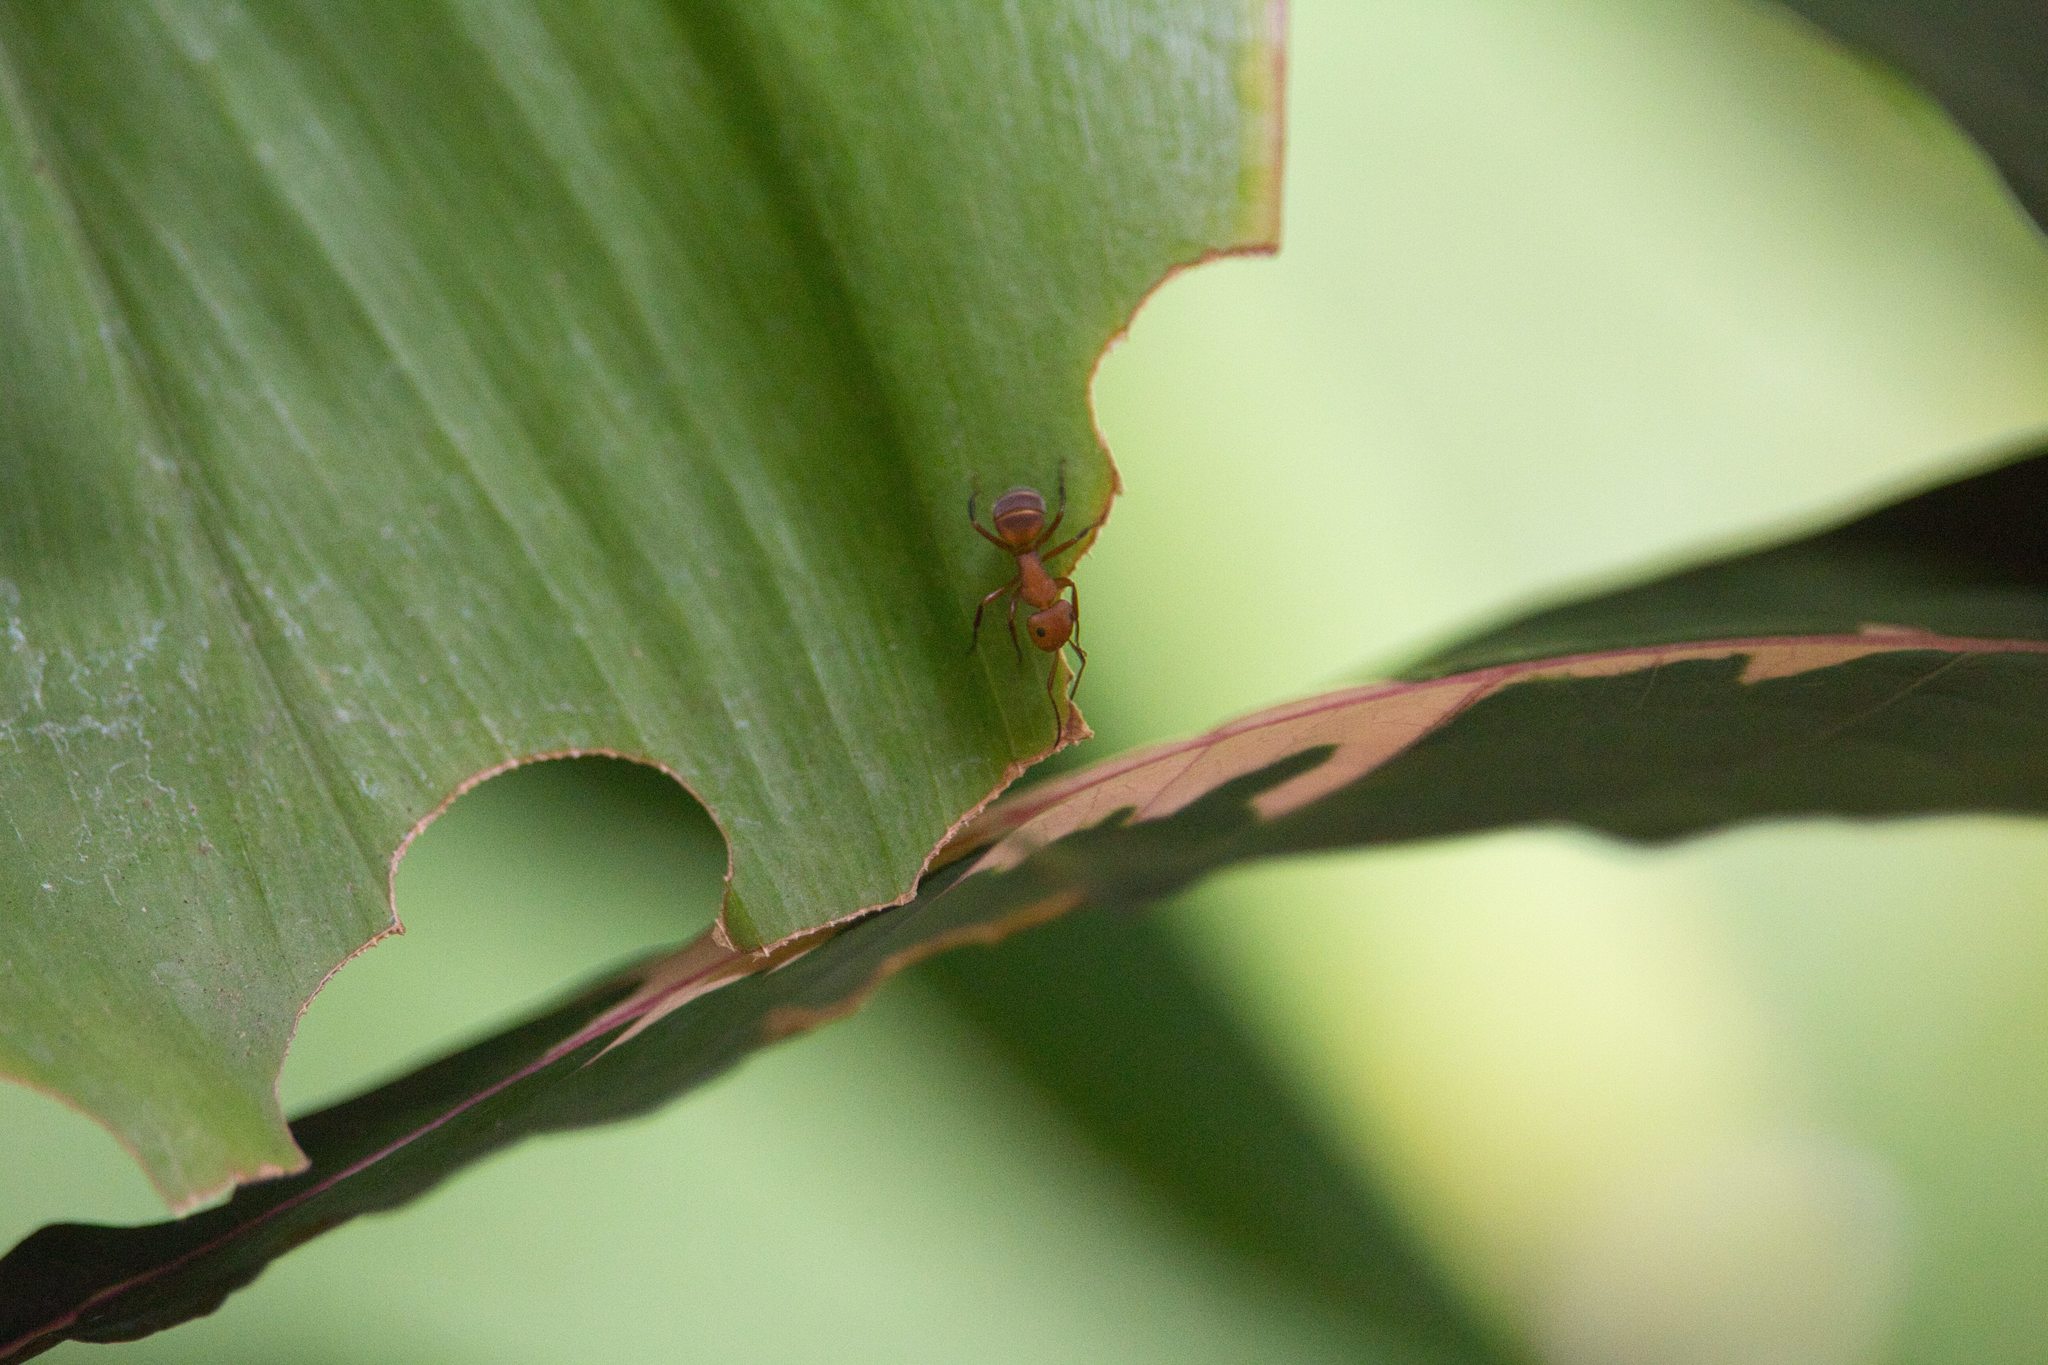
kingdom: Animalia
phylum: Arthropoda
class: Insecta
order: Hymenoptera
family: Formicidae
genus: Camponotus
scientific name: Camponotus rectangularis
